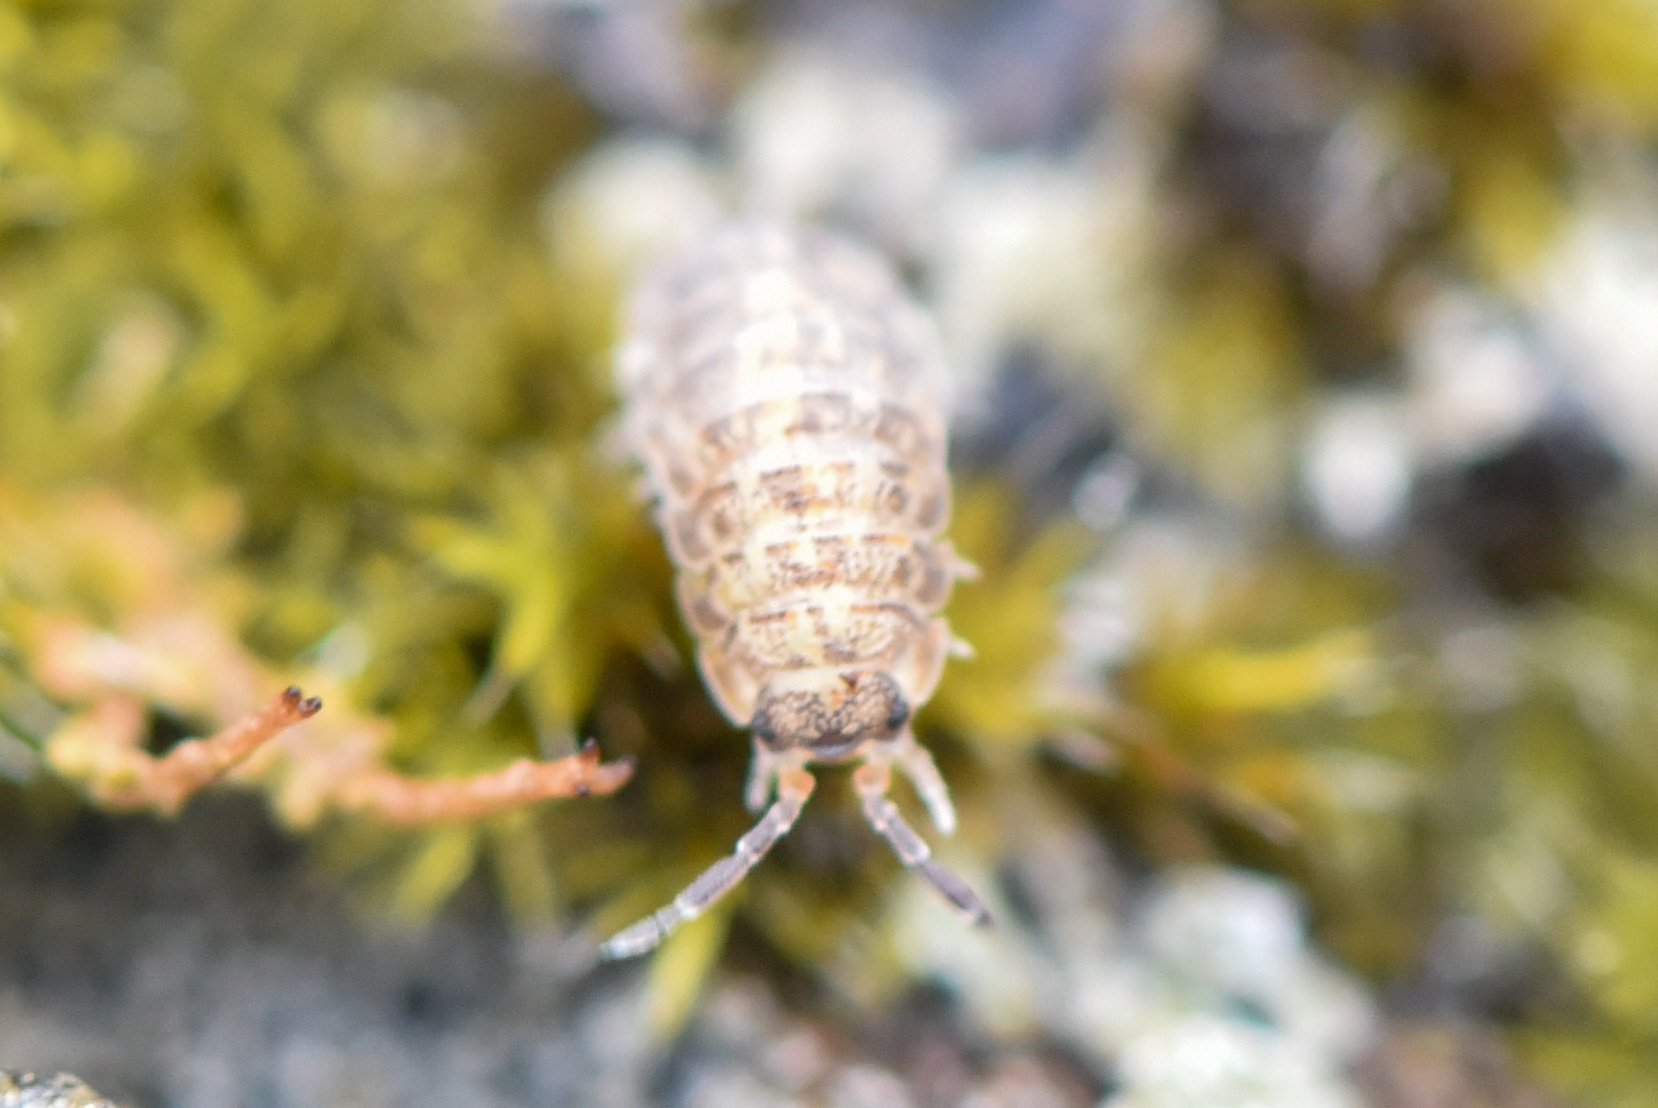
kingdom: Animalia
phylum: Arthropoda
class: Malacostraca
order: Isopoda
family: Porcellionidae
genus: Porcellio
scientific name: Porcellio scaber
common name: Common rough woodlouse
